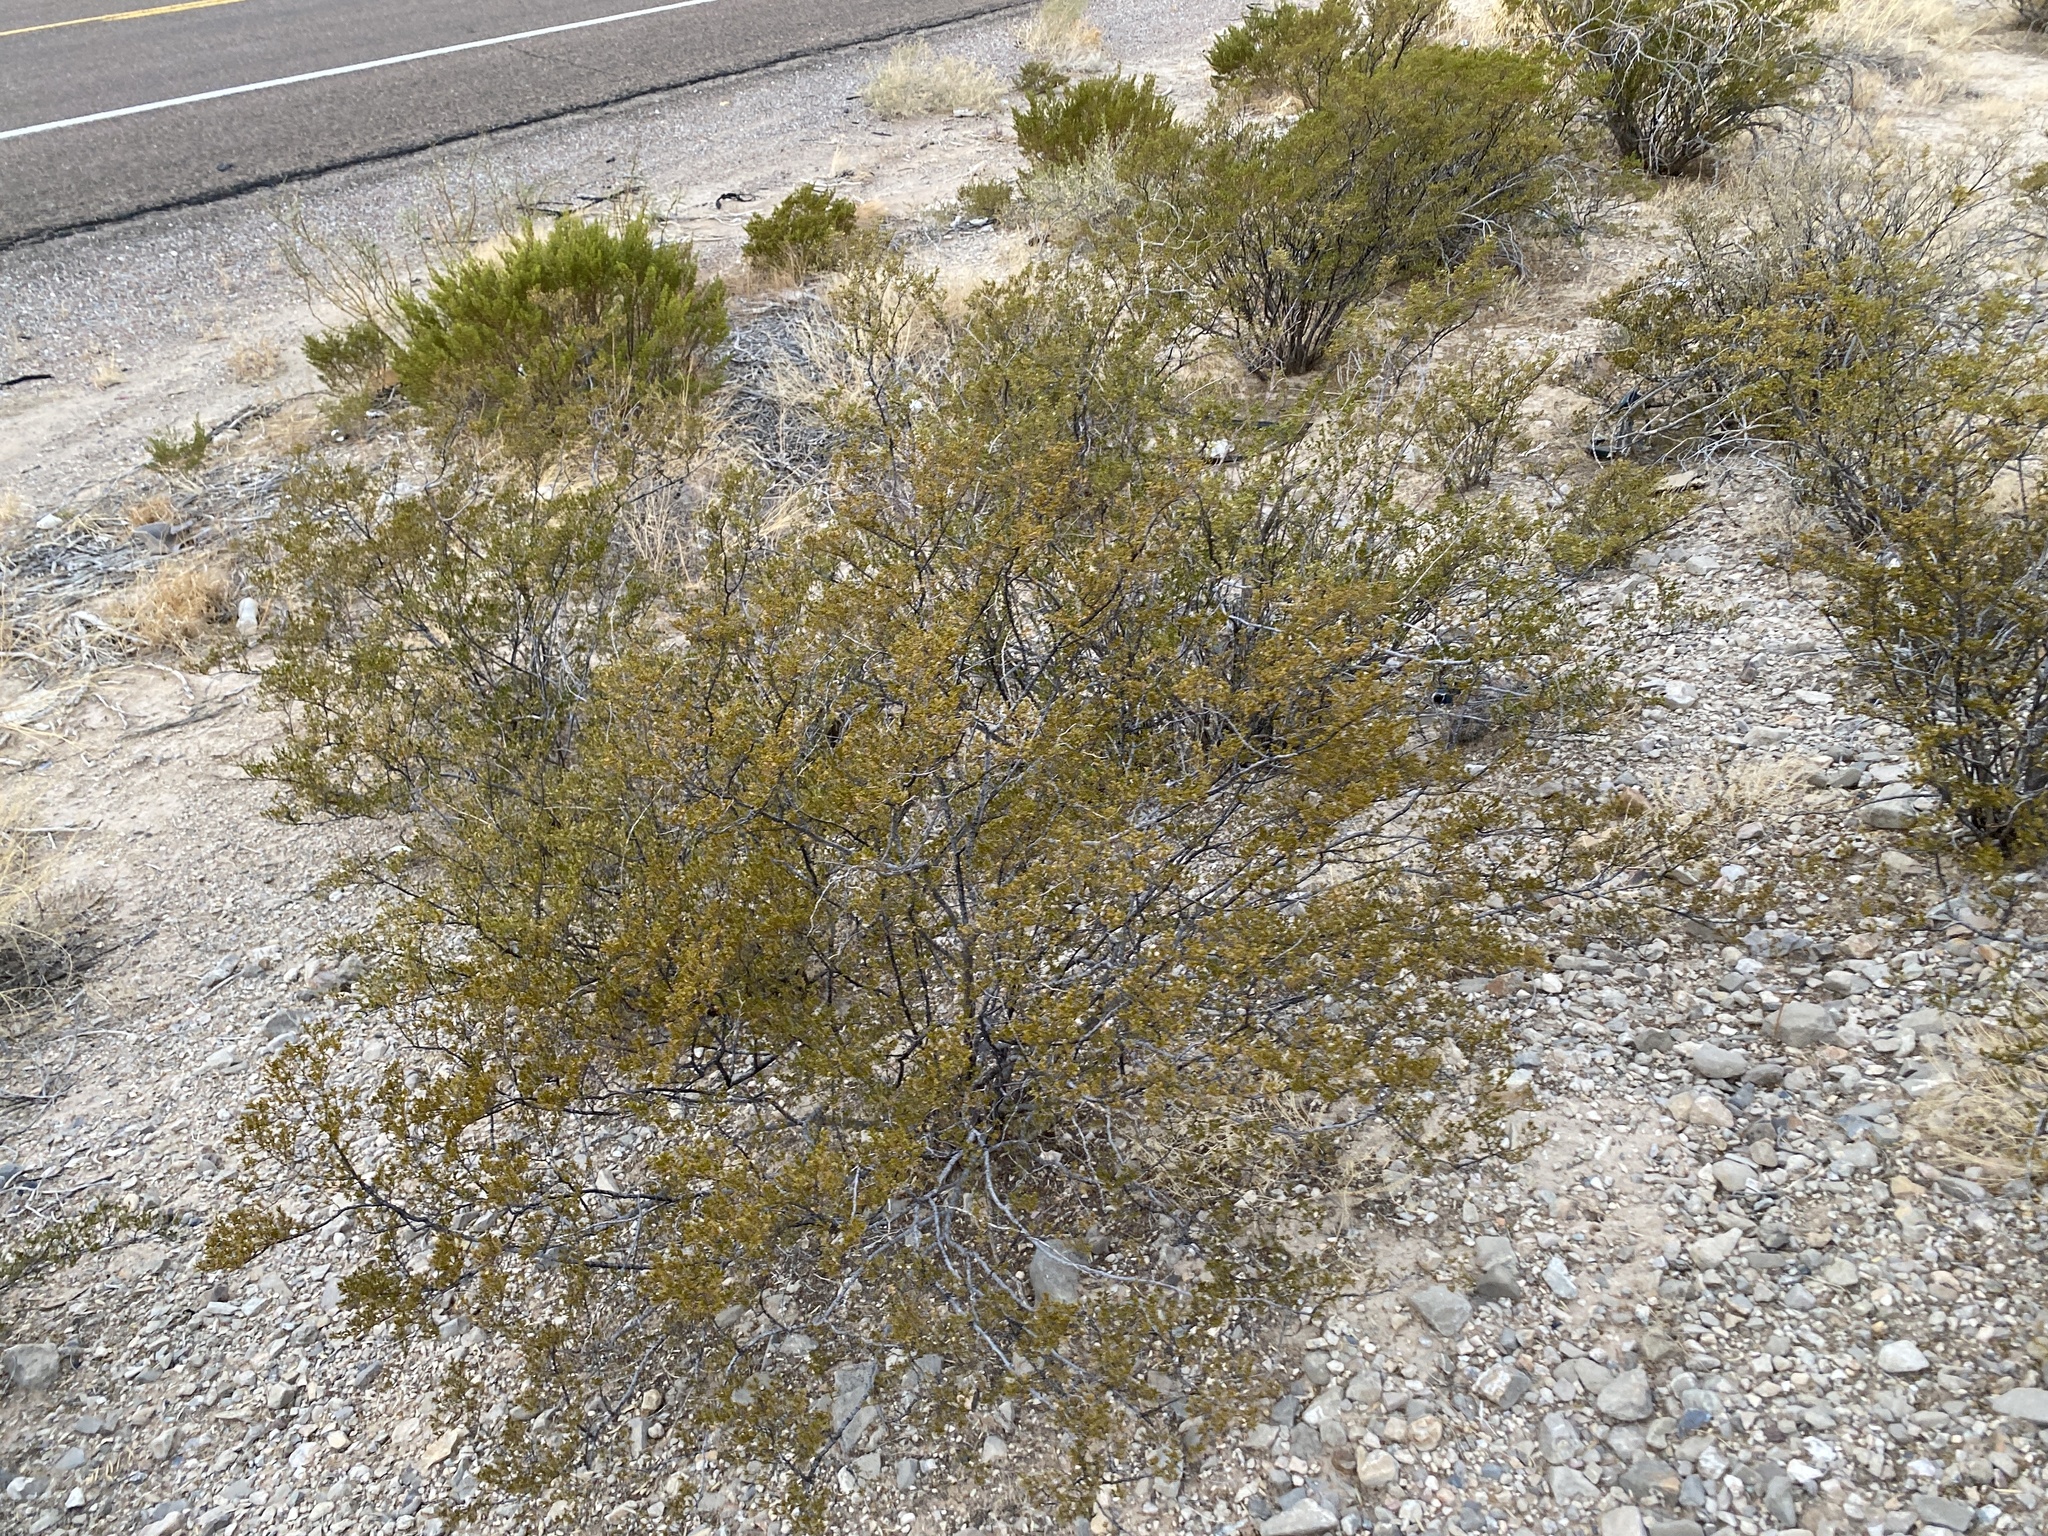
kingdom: Plantae
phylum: Tracheophyta
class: Magnoliopsida
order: Zygophyllales
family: Zygophyllaceae
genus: Larrea
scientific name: Larrea tridentata
